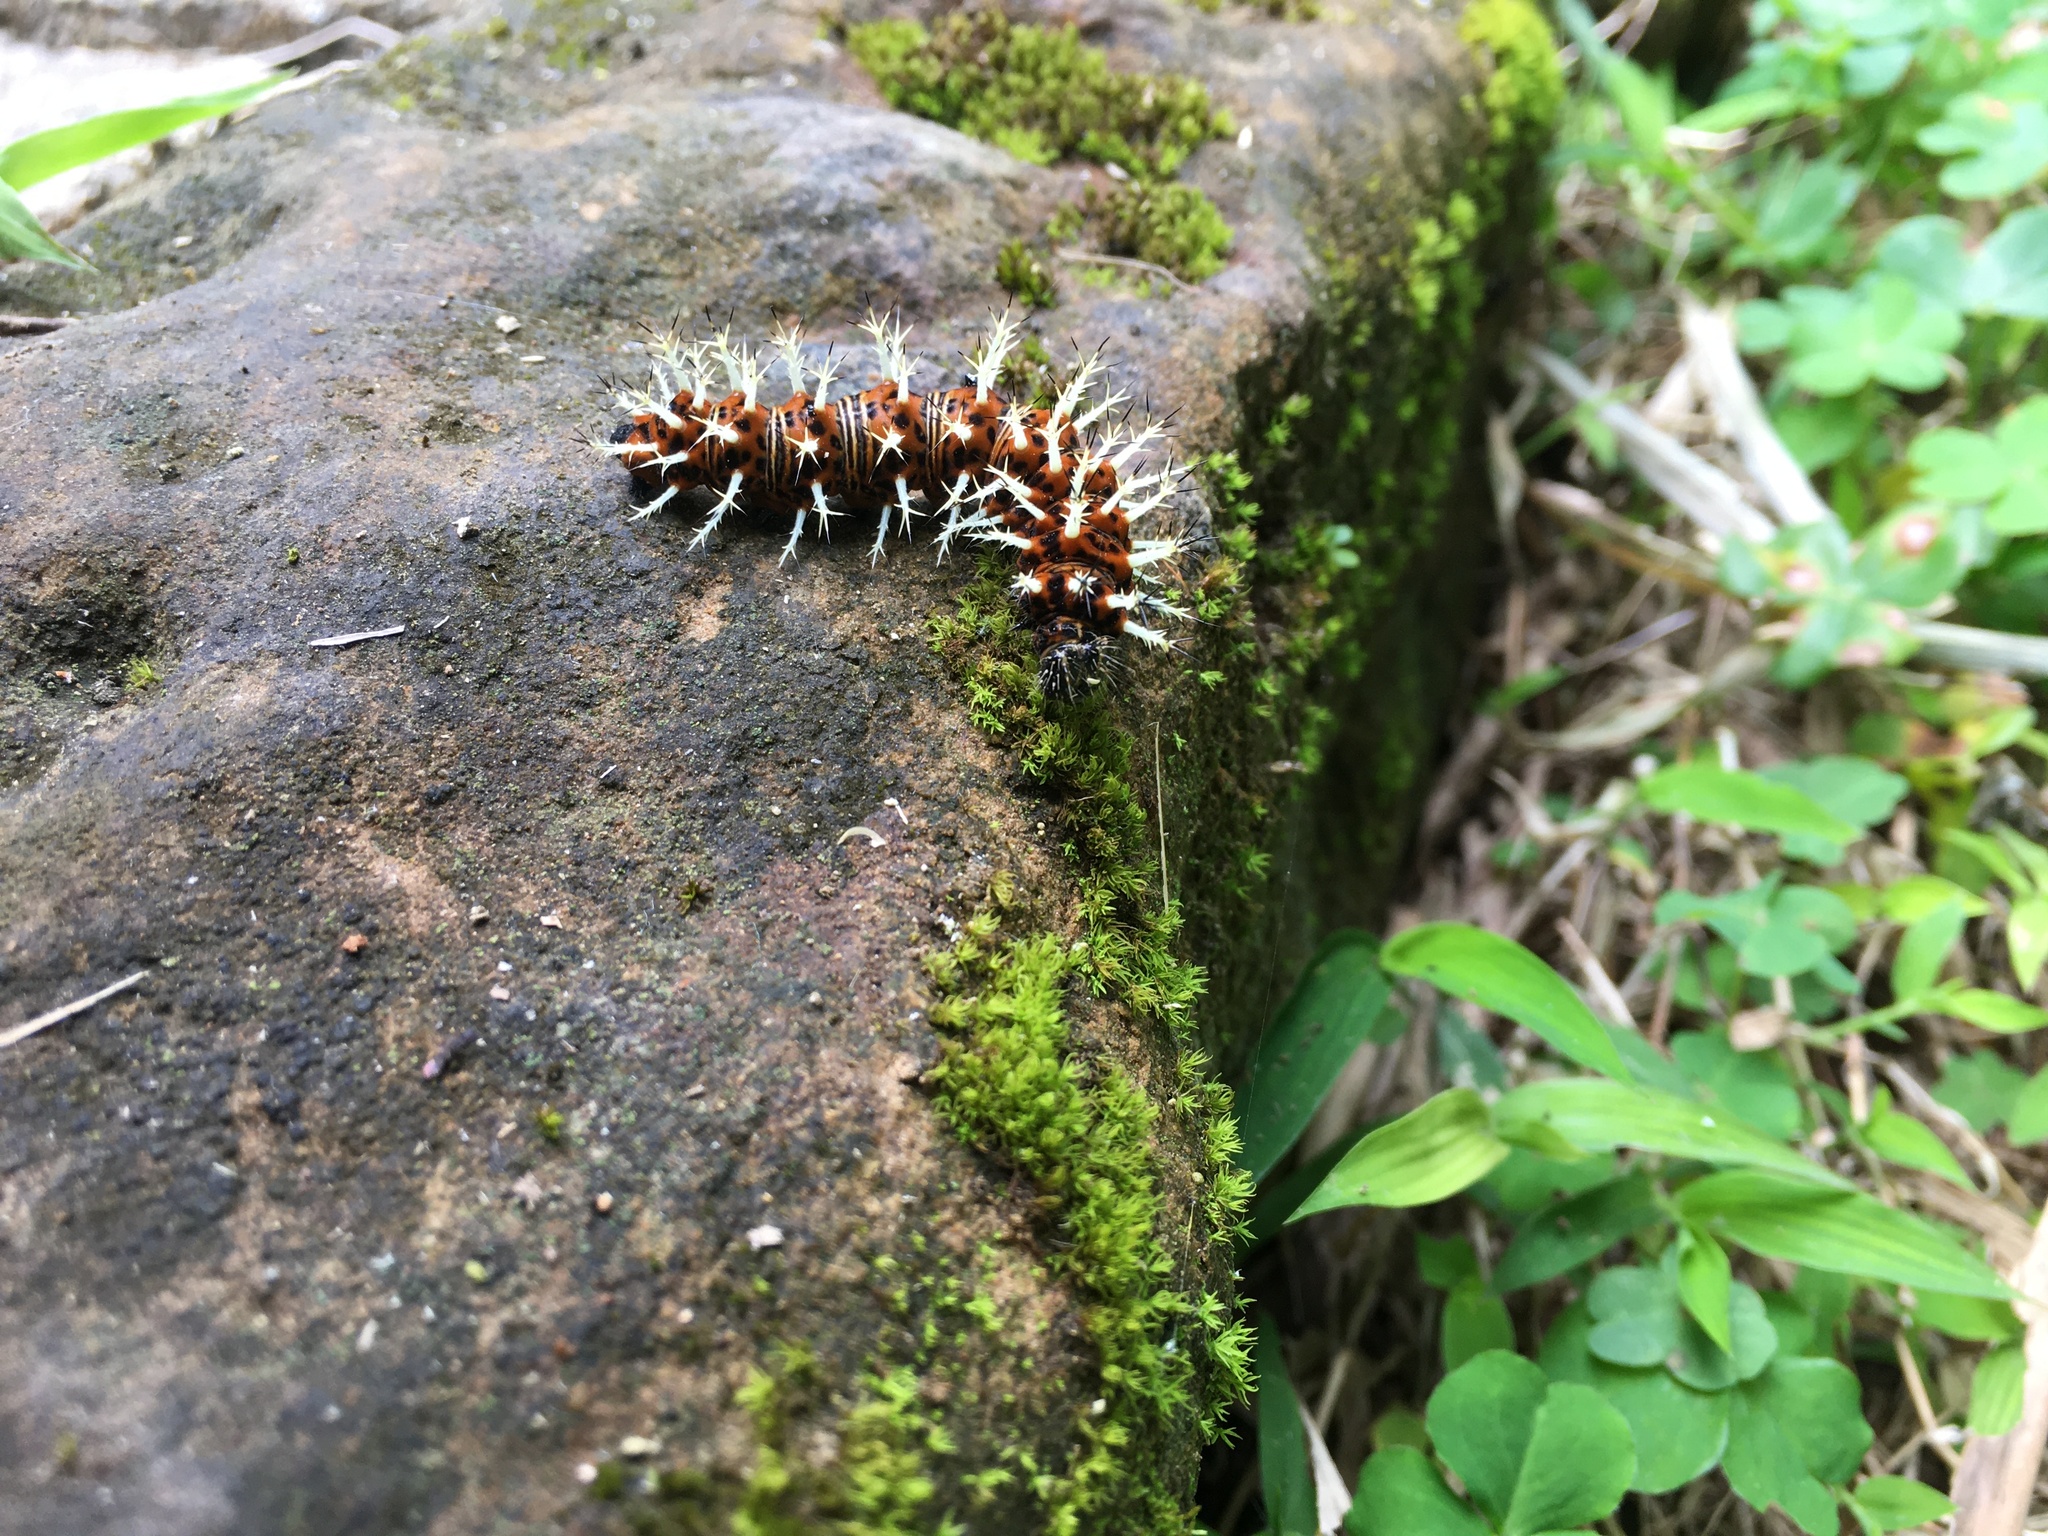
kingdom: Animalia
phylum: Arthropoda
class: Insecta
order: Lepidoptera
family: Nymphalidae
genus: Vanessa
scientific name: Vanessa Kaniska canace
